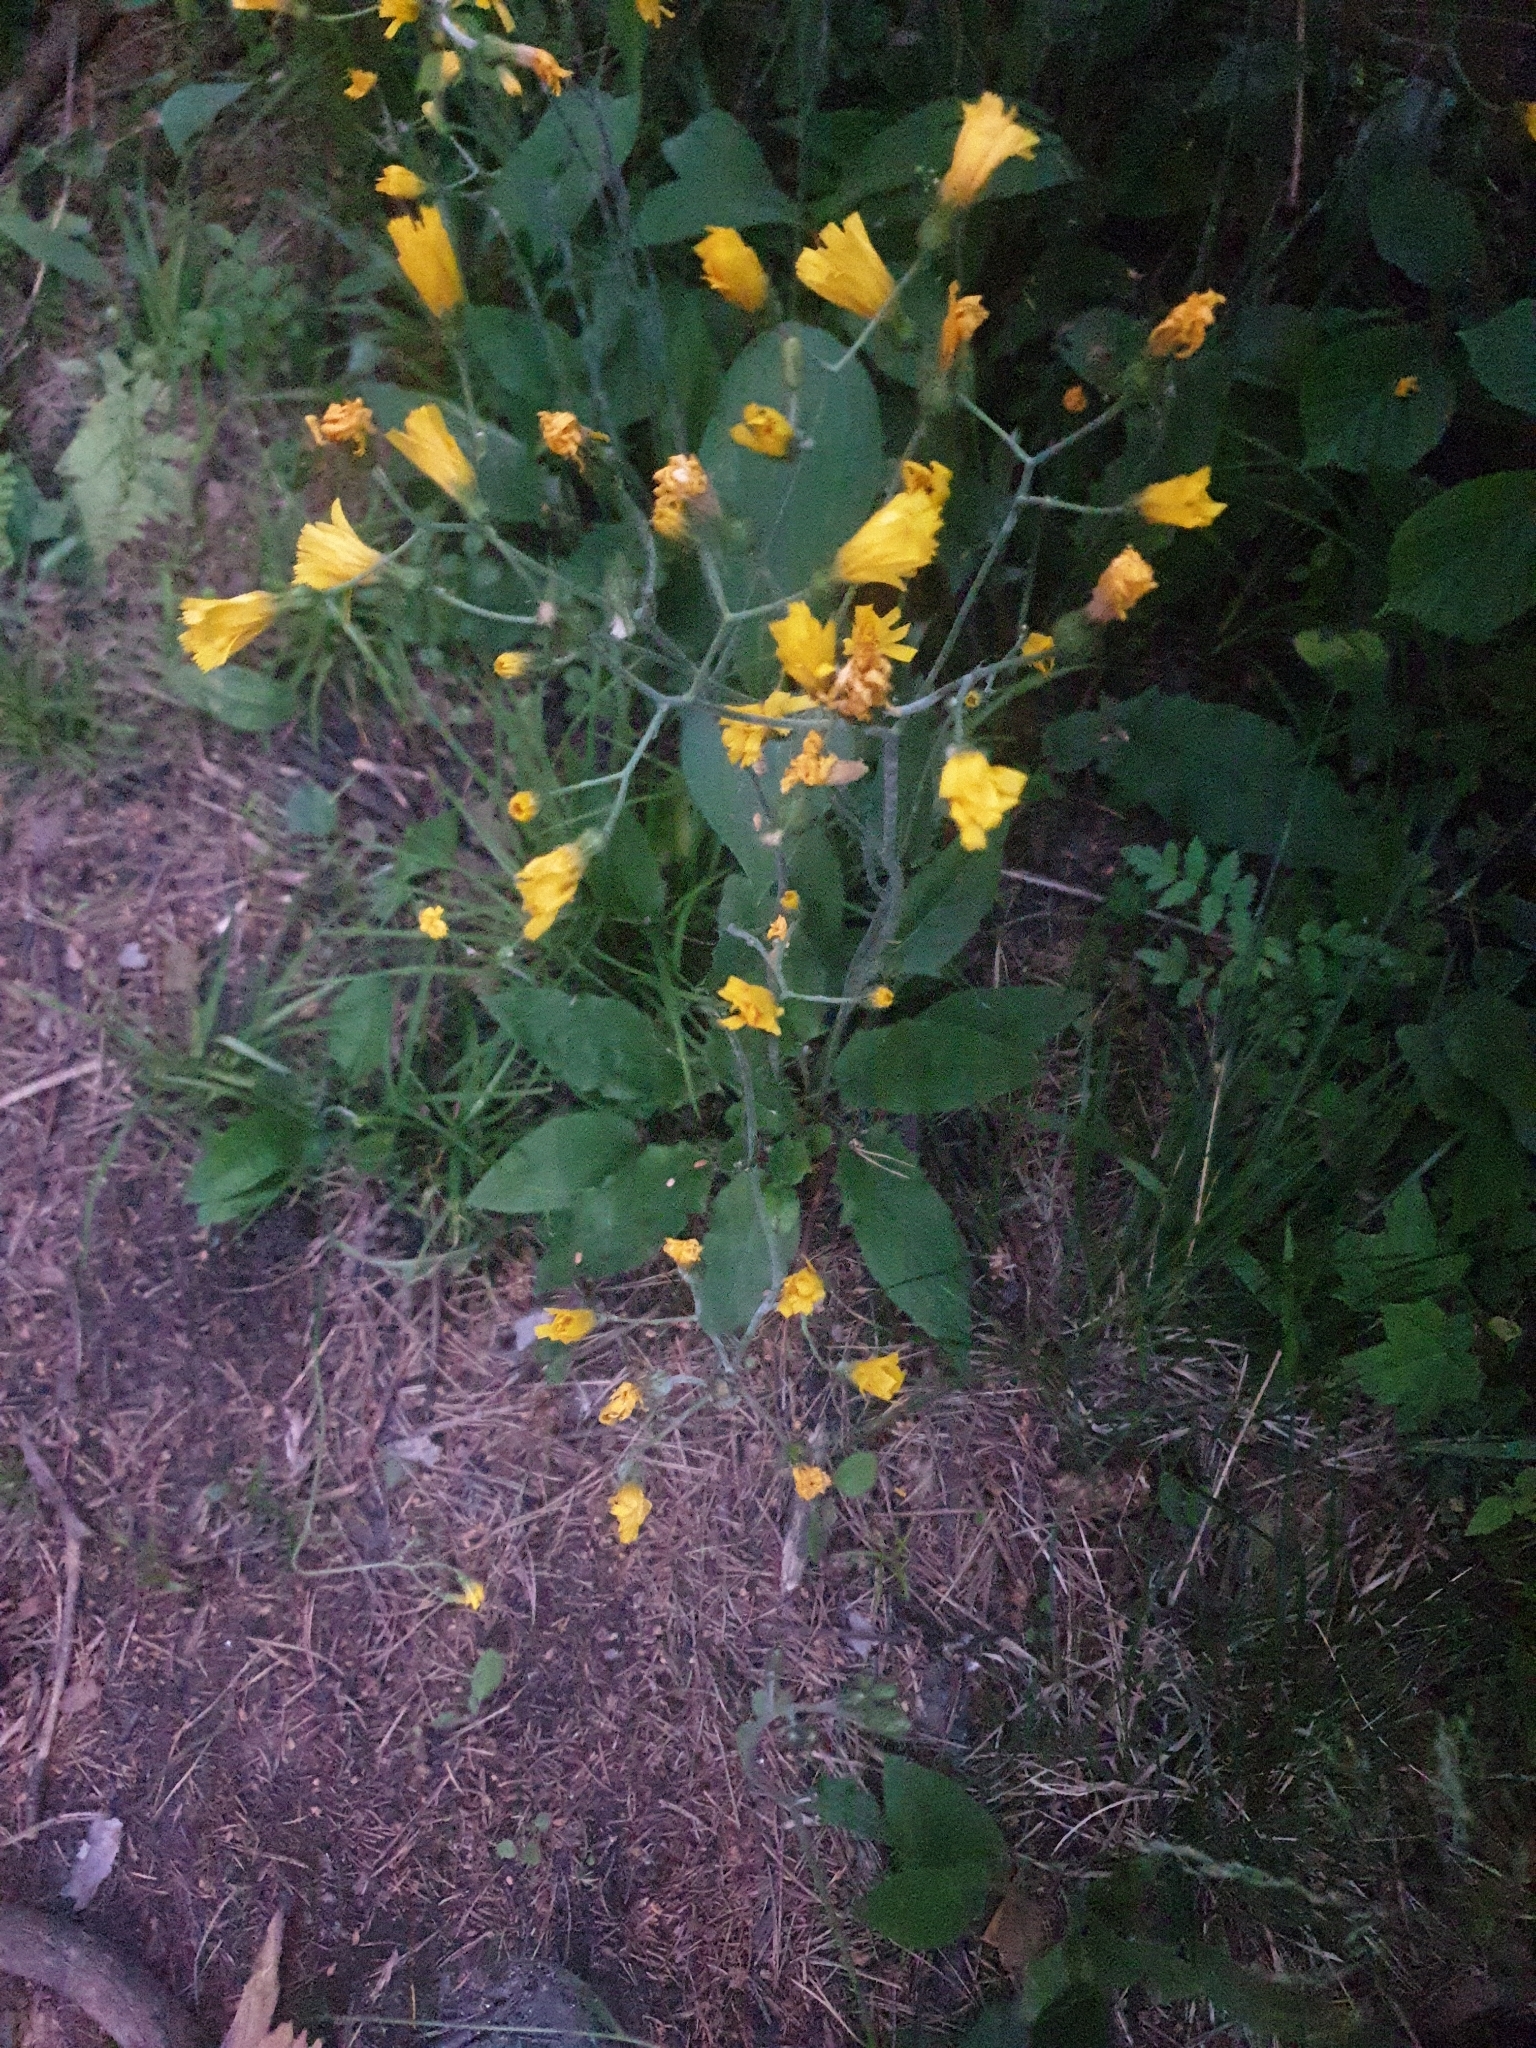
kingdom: Plantae
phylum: Tracheophyta
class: Magnoliopsida
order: Asterales
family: Asteraceae
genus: Hieracium
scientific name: Hieracium murorum
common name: Wall hawkweed
